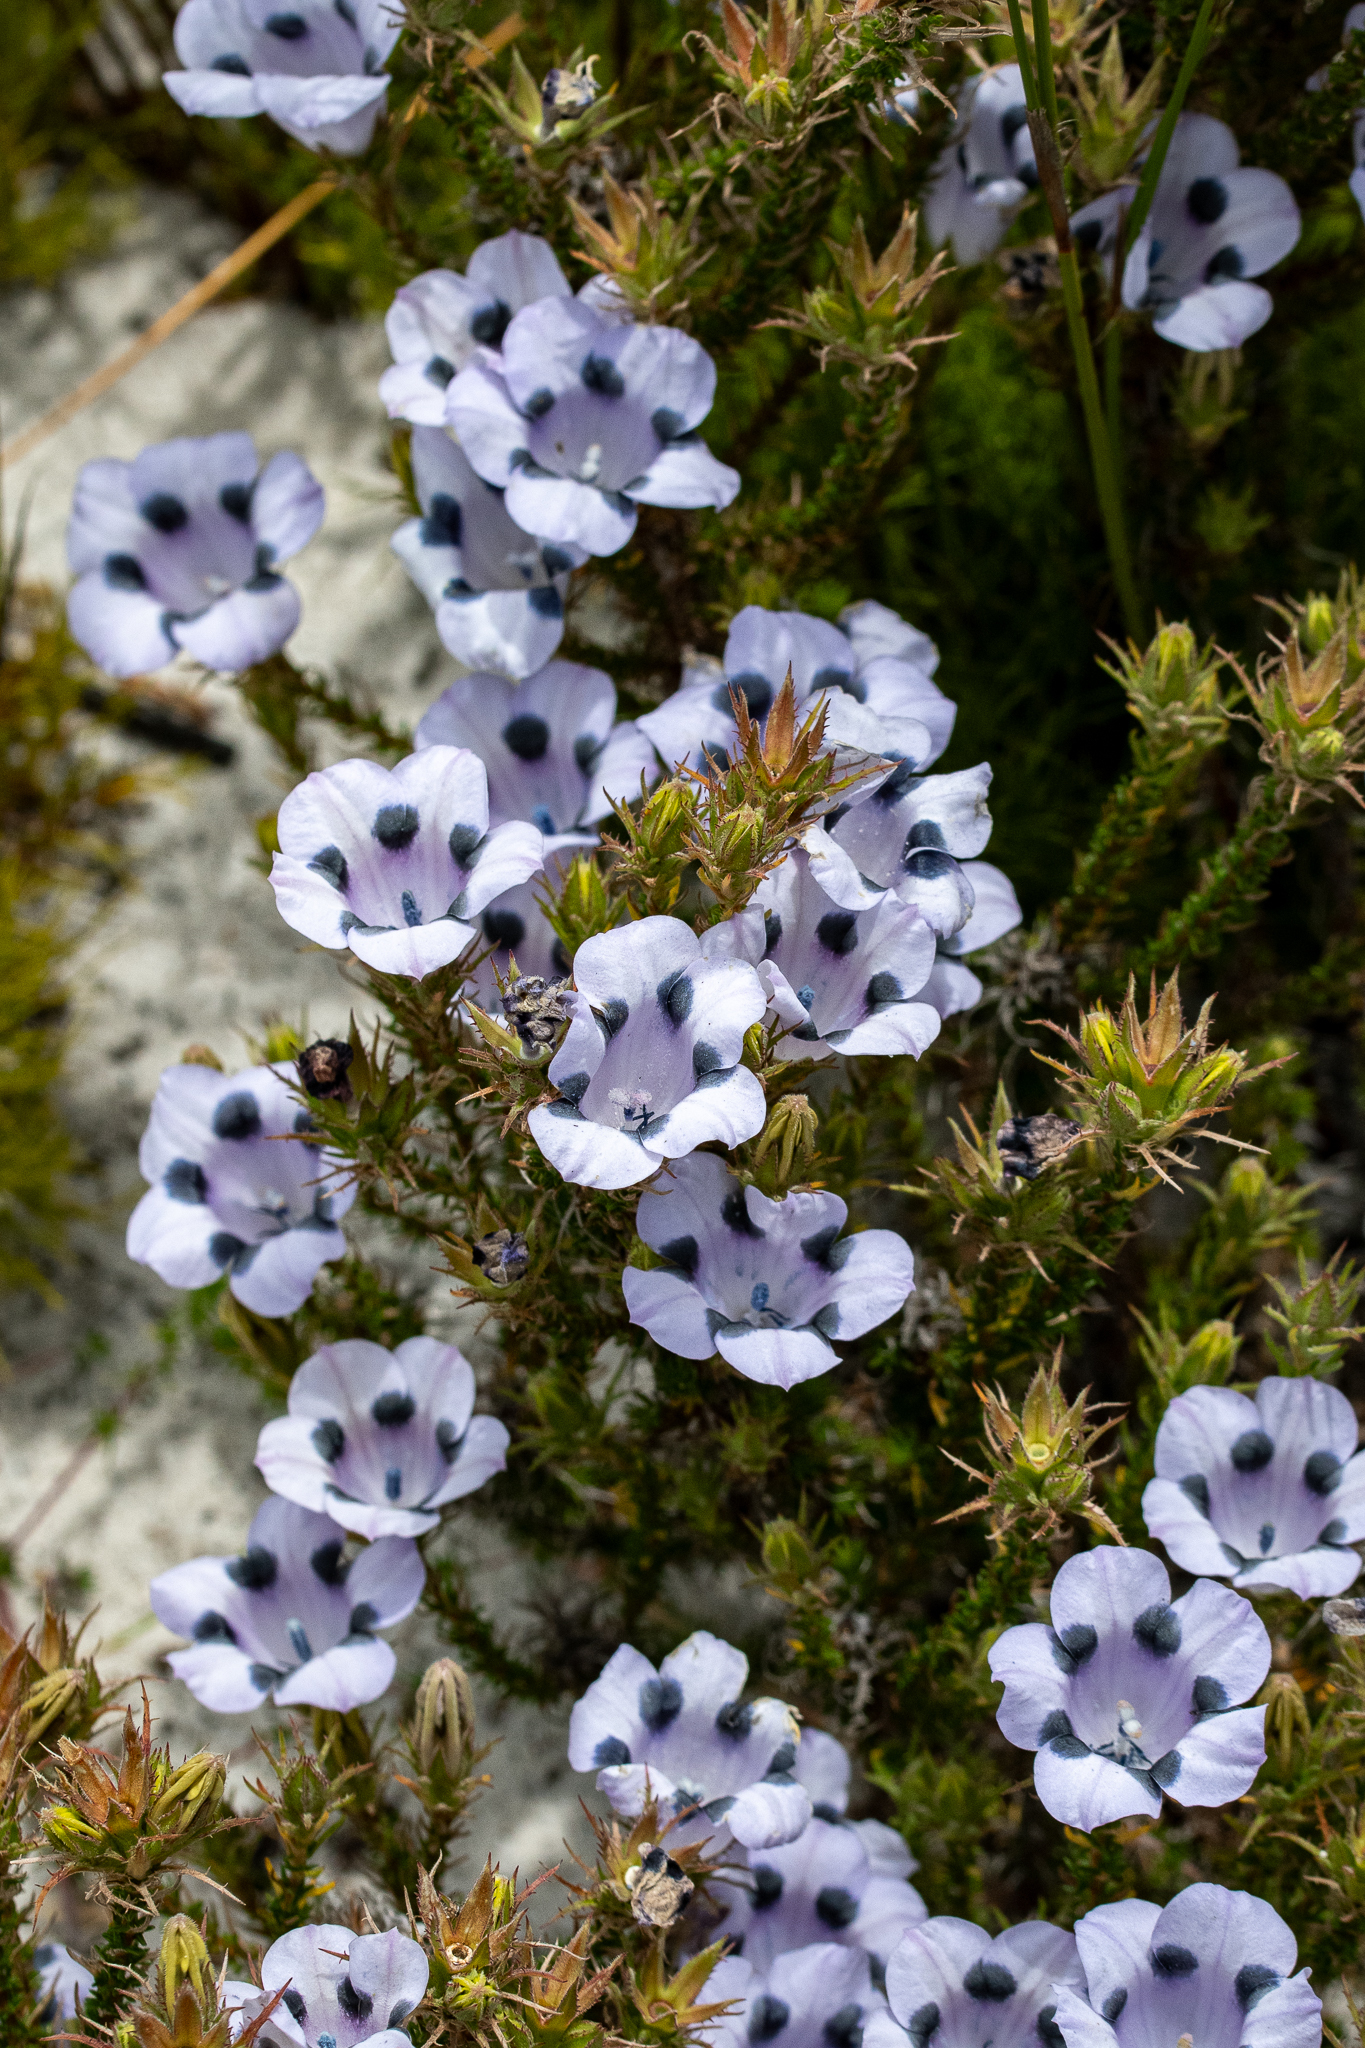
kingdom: Plantae
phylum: Tracheophyta
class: Magnoliopsida
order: Asterales
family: Campanulaceae
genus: Roella
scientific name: Roella maculata
